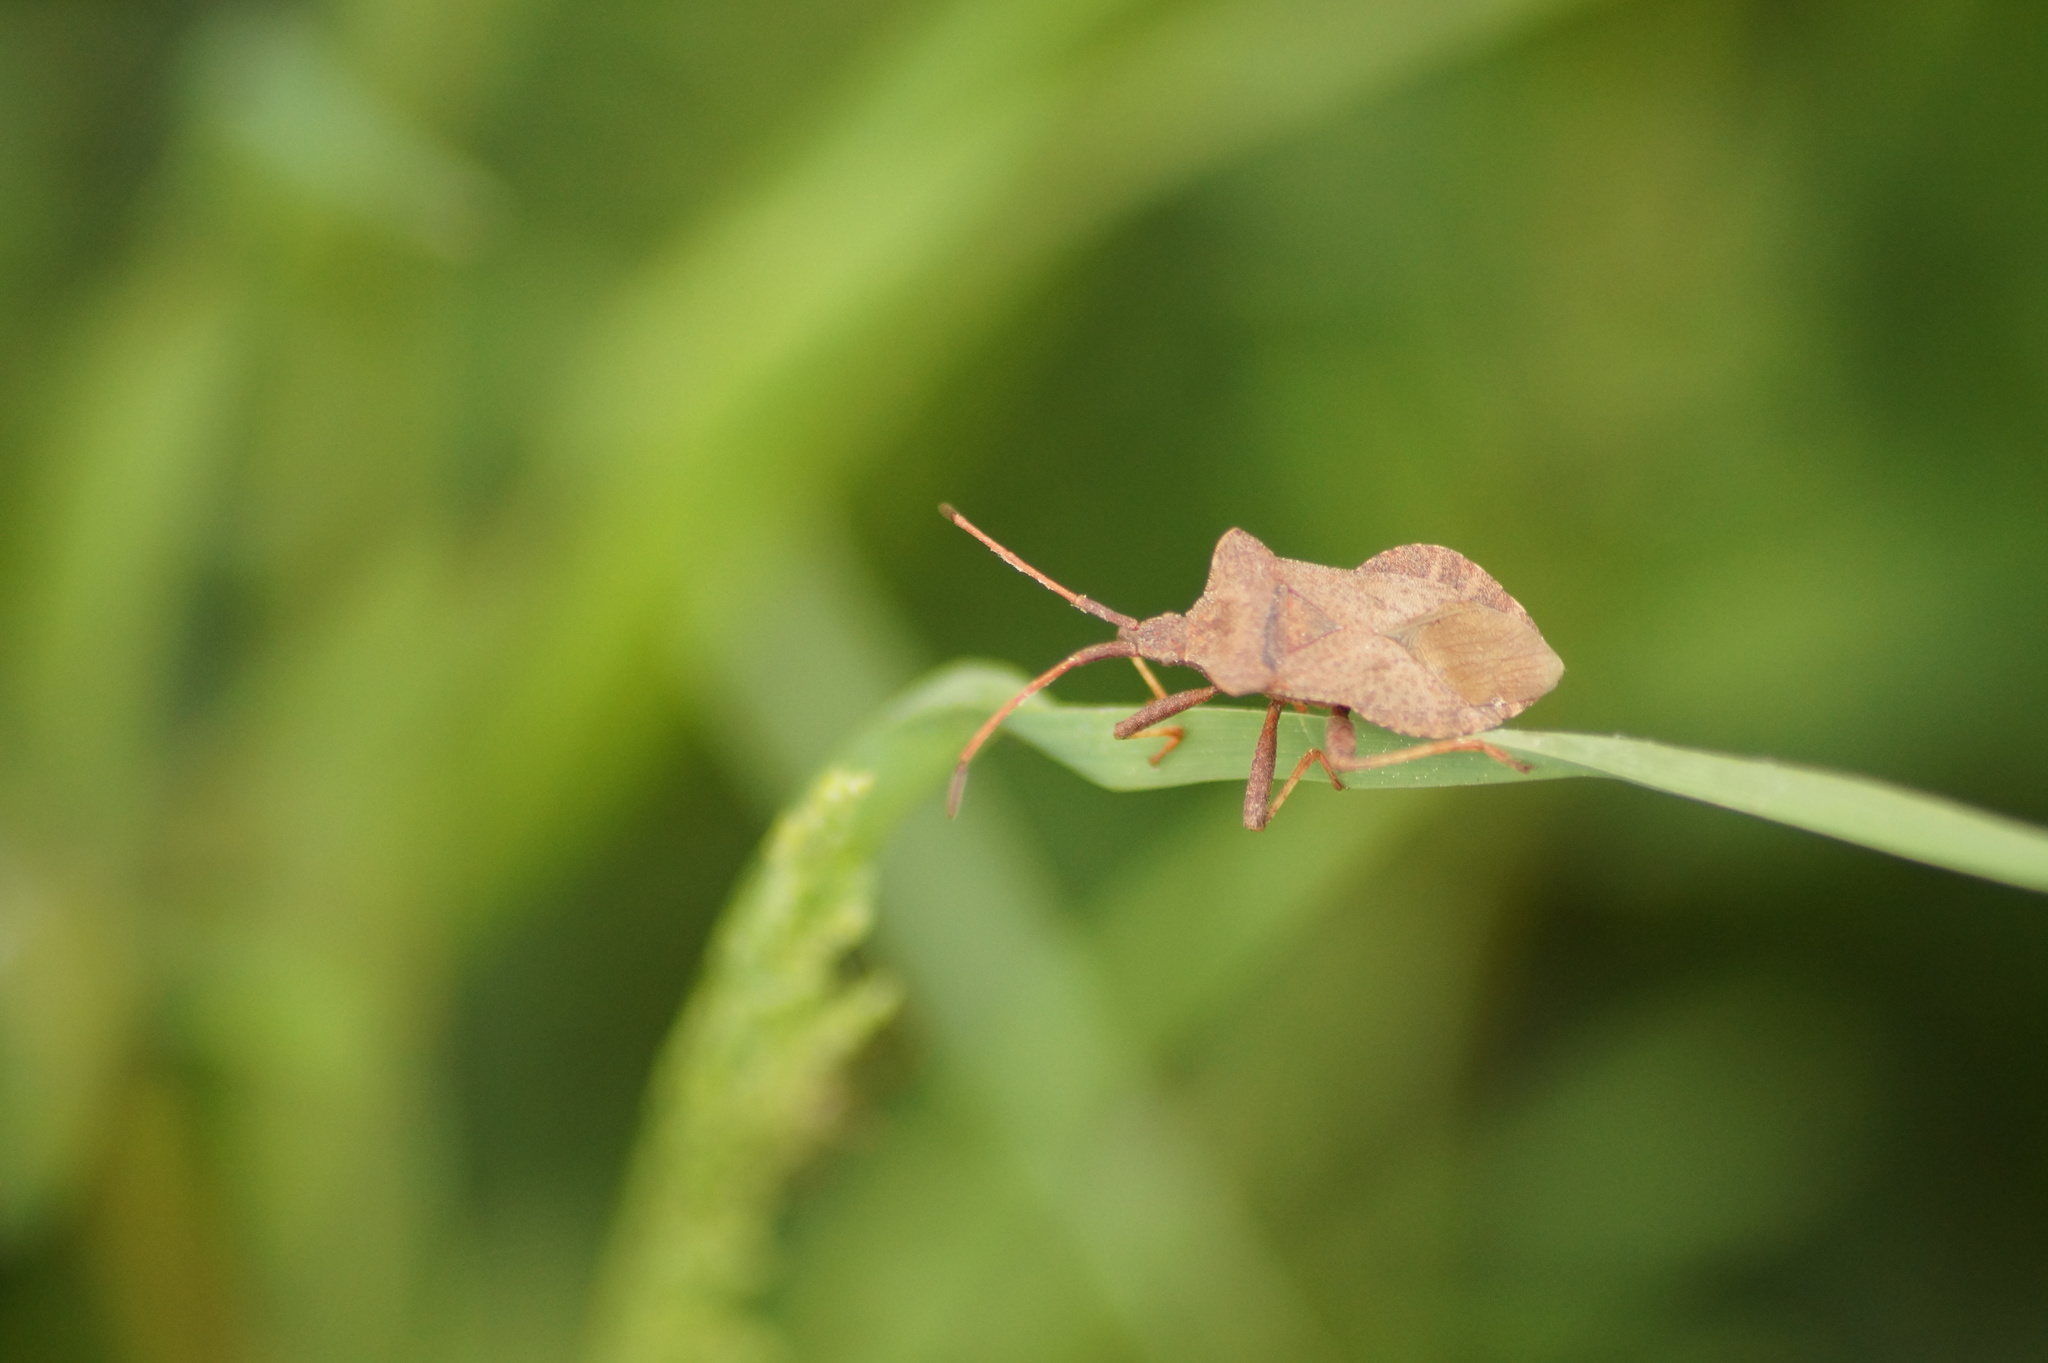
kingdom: Animalia
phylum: Arthropoda
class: Insecta
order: Hemiptera
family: Coreidae
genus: Coreus
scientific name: Coreus marginatus
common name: Dock bug
